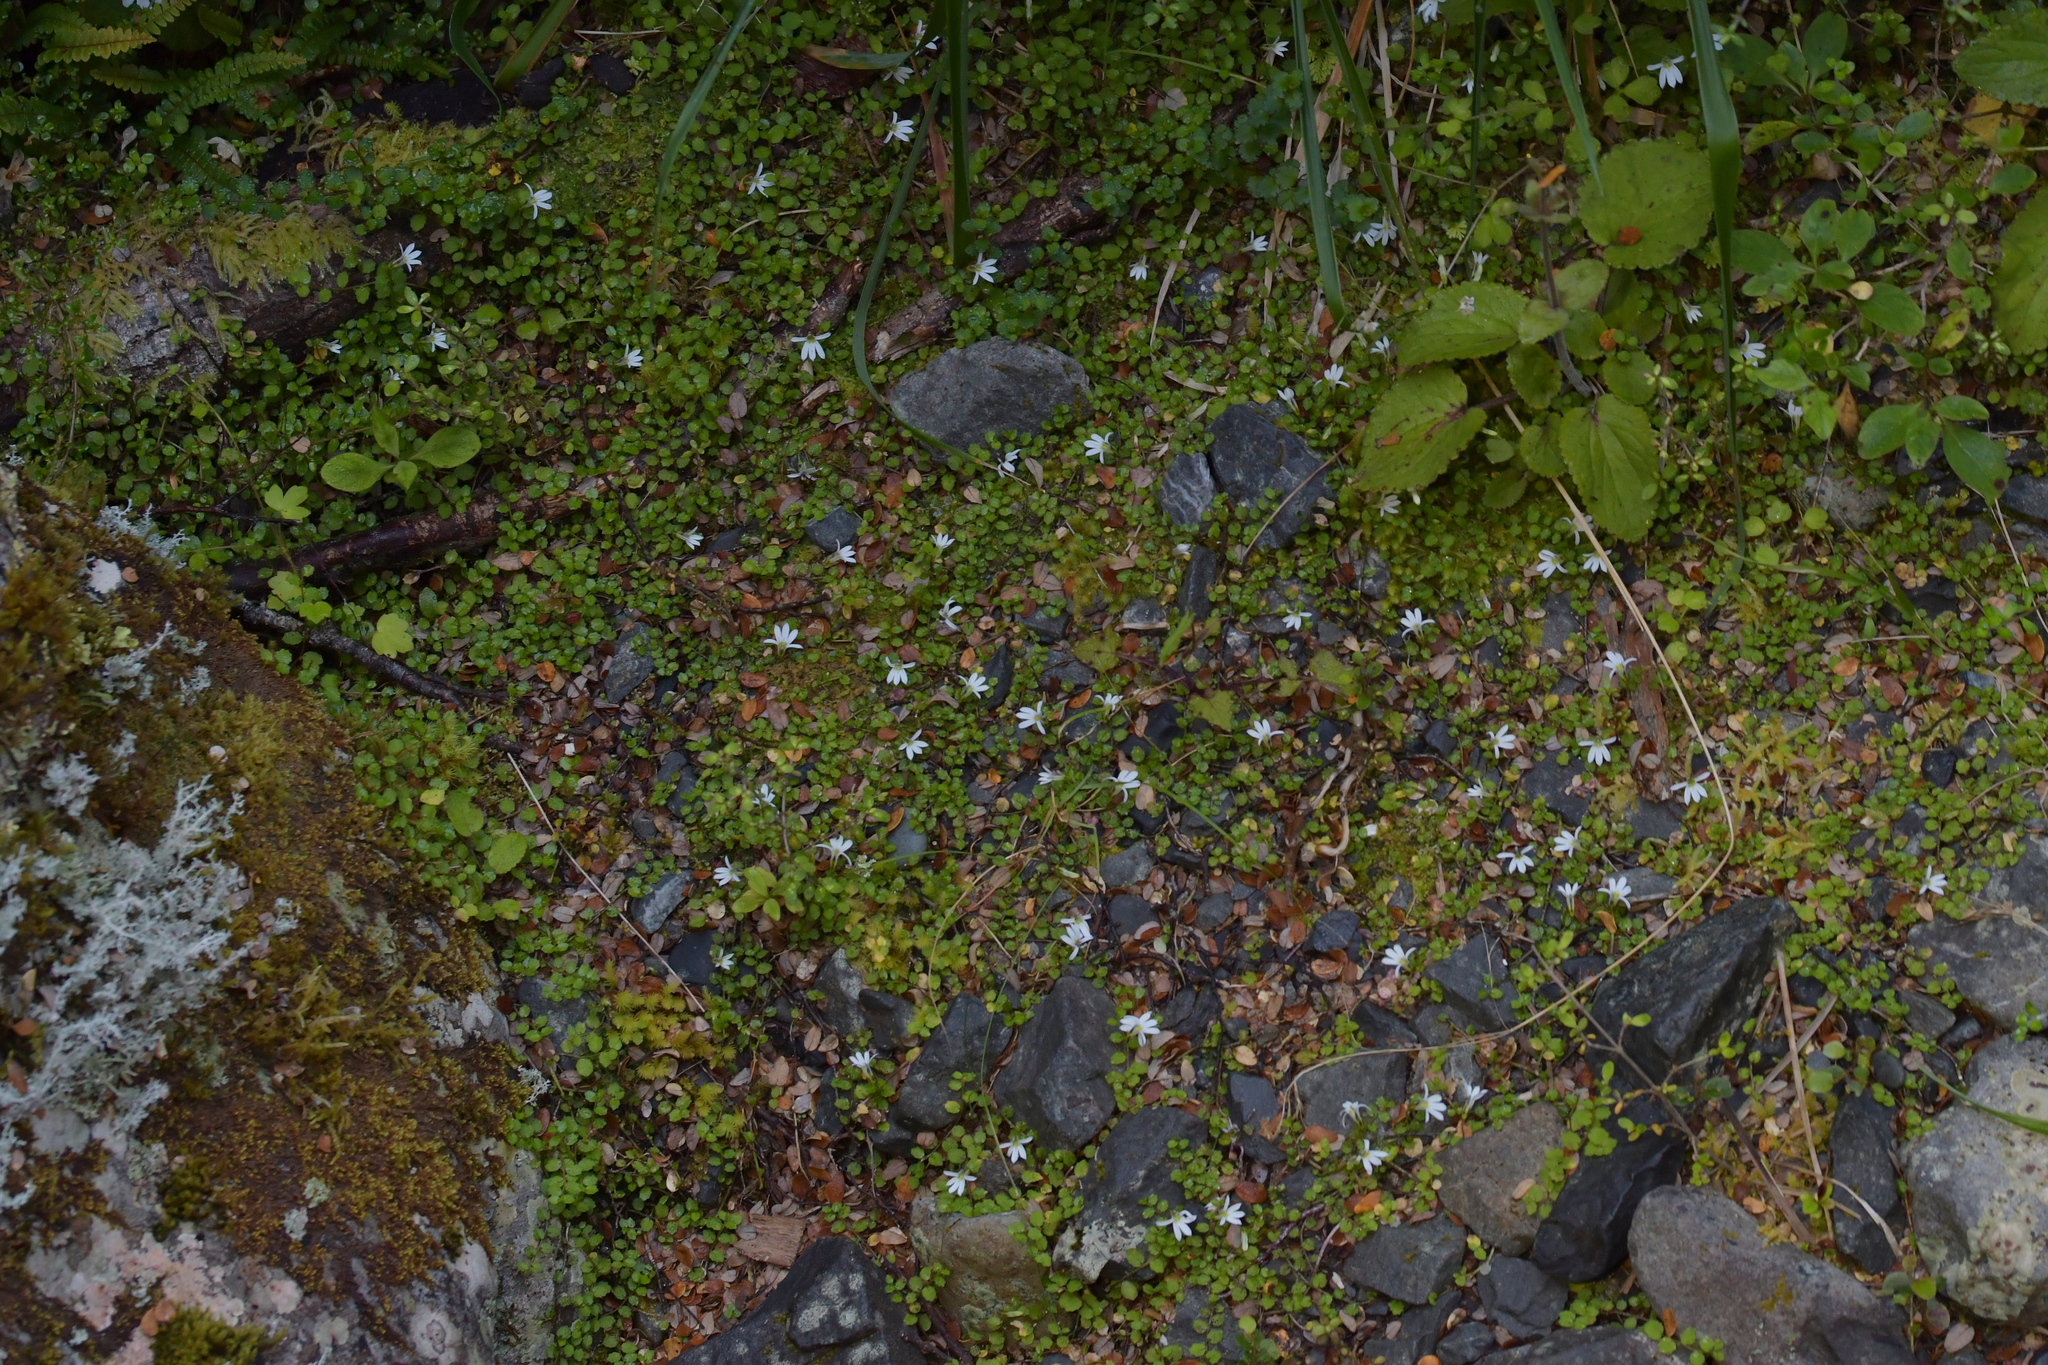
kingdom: Plantae
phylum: Tracheophyta
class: Magnoliopsida
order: Asterales
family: Campanulaceae
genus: Lobelia
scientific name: Lobelia angulata
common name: Lawn lobelia
